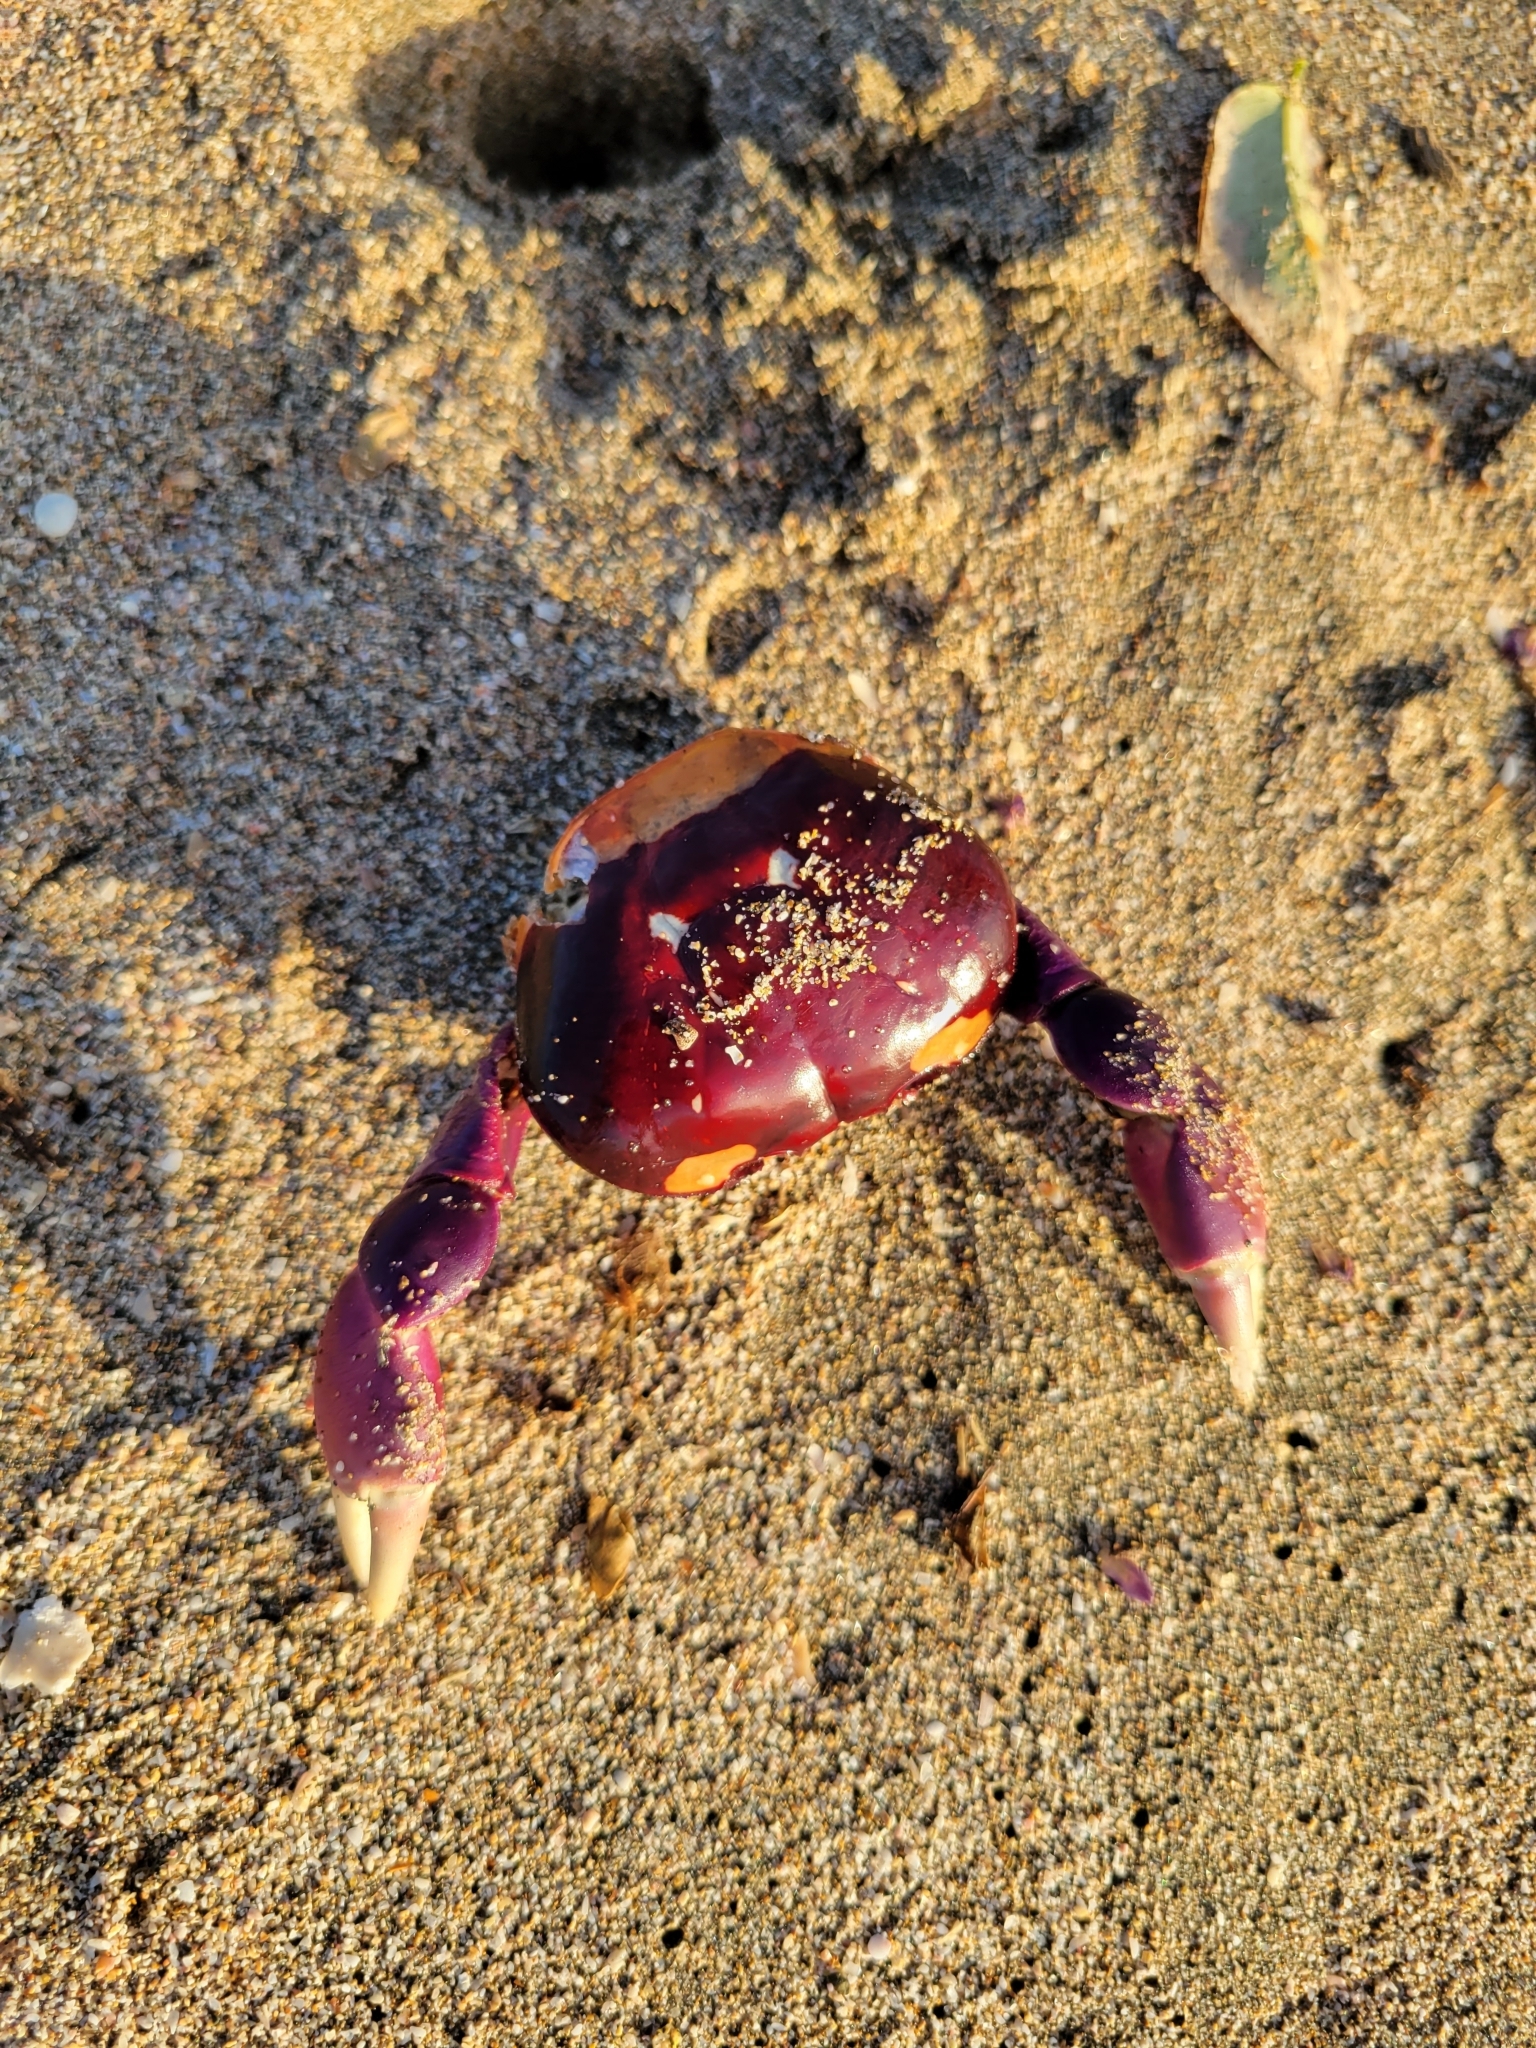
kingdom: Animalia
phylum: Arthropoda
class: Malacostraca
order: Decapoda
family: Gecarcinidae
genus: Gecarcinus
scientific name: Gecarcinus quadratus
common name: Halloween crab
